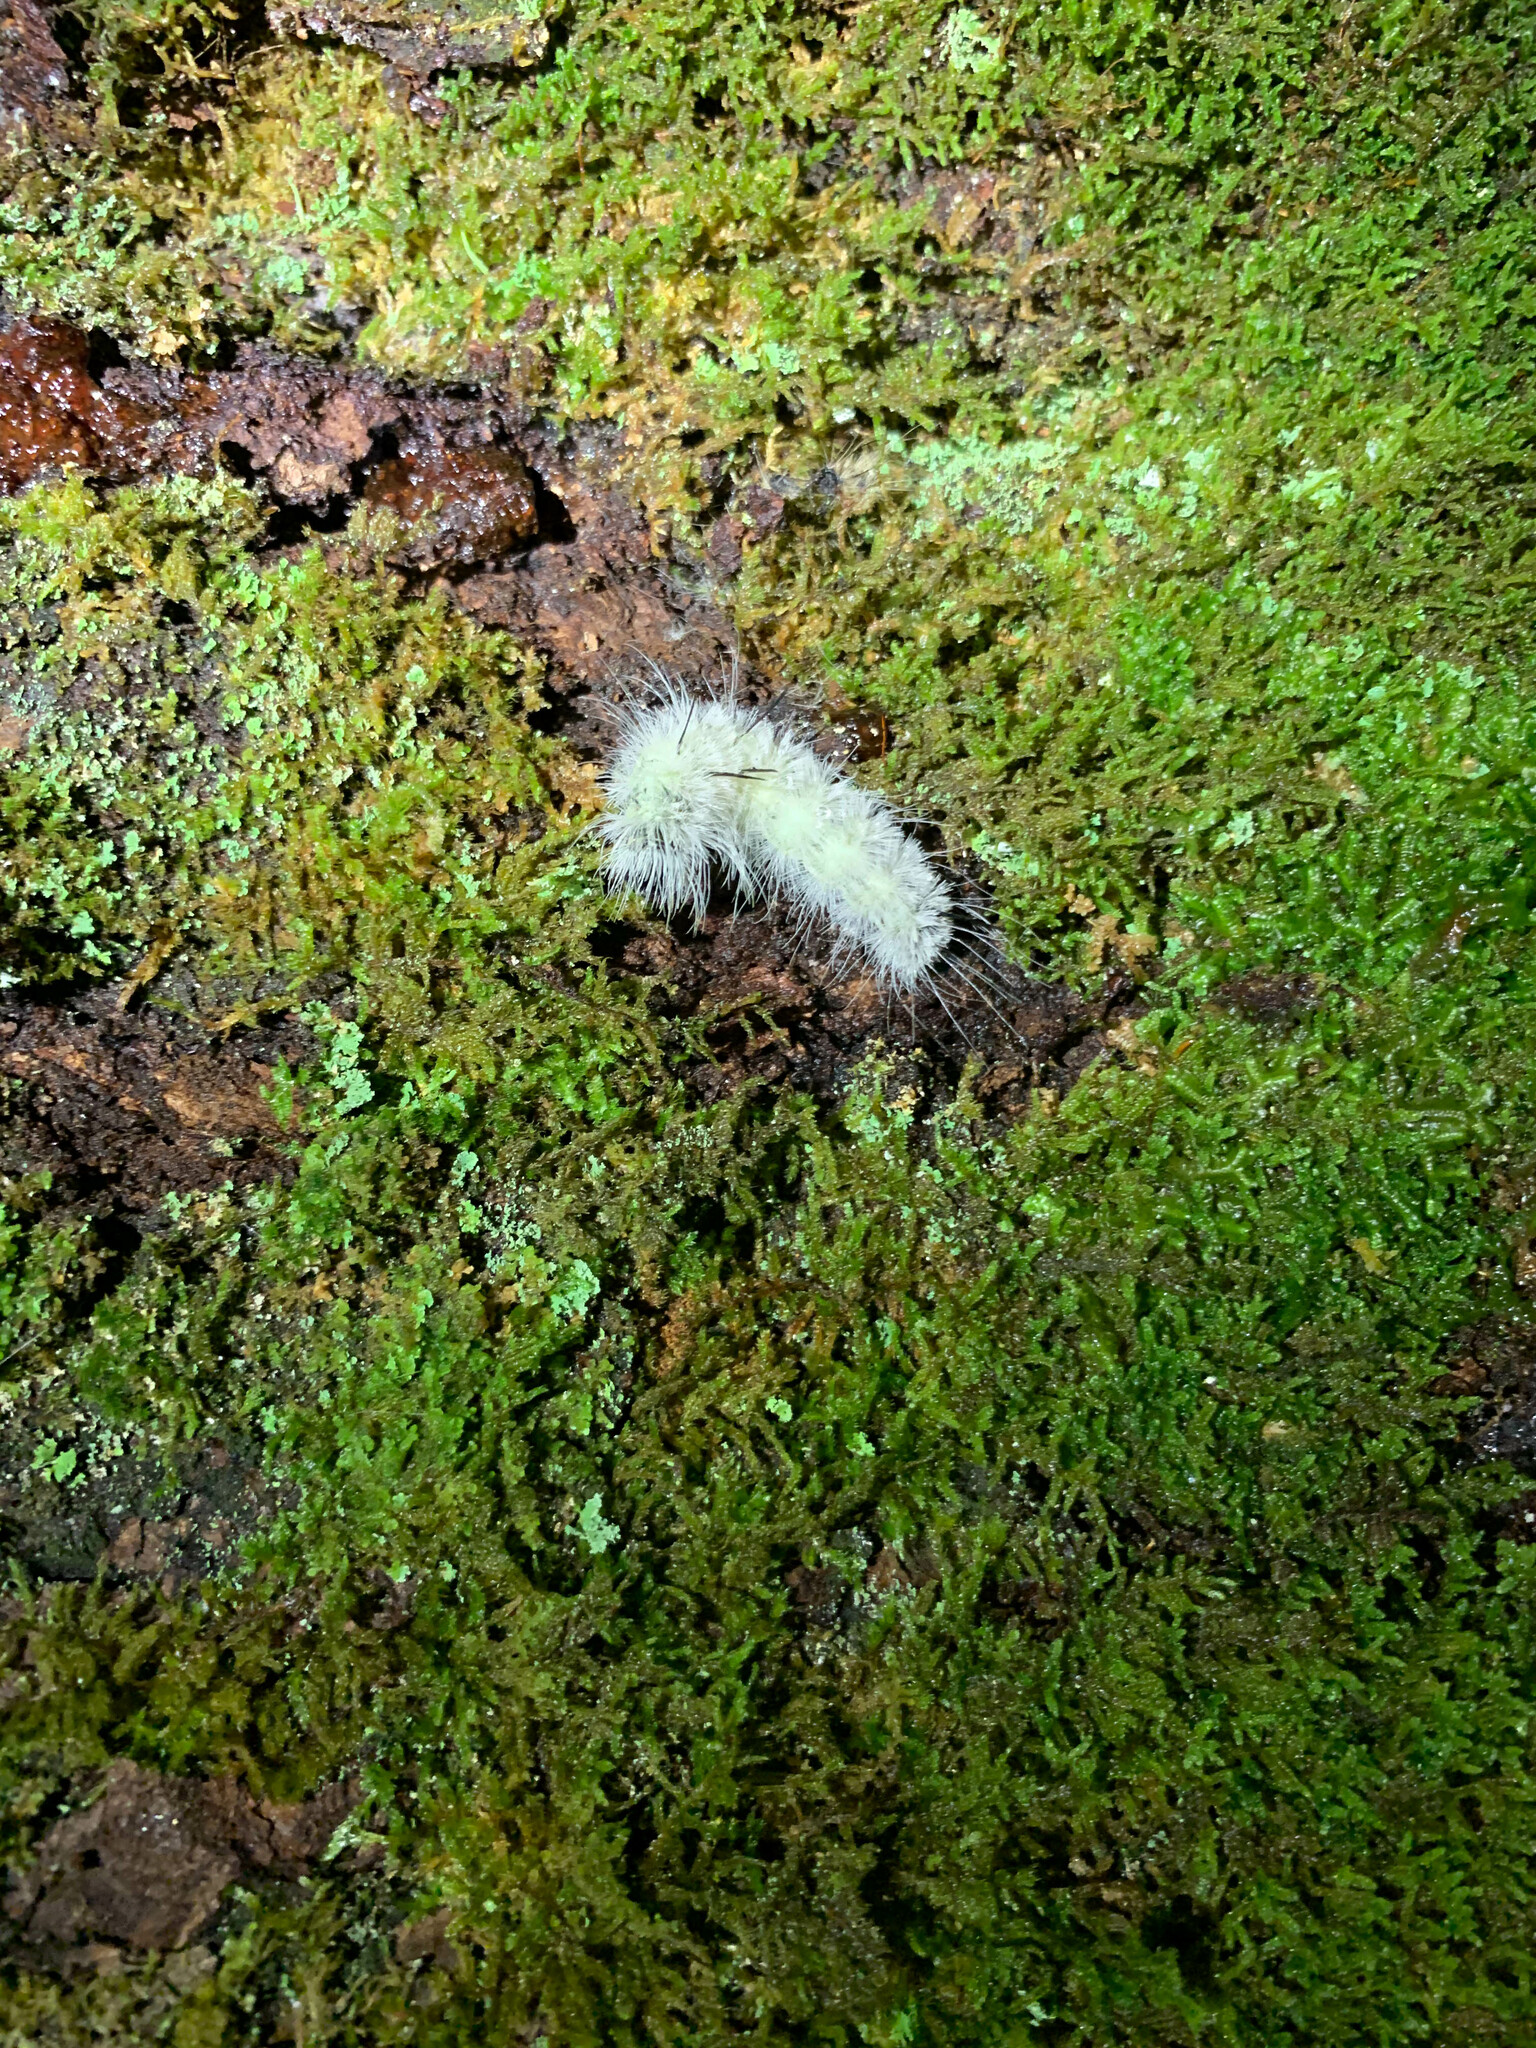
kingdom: Animalia
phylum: Arthropoda
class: Insecta
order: Lepidoptera
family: Noctuidae
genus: Acronicta
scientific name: Acronicta americana
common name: American dagger
